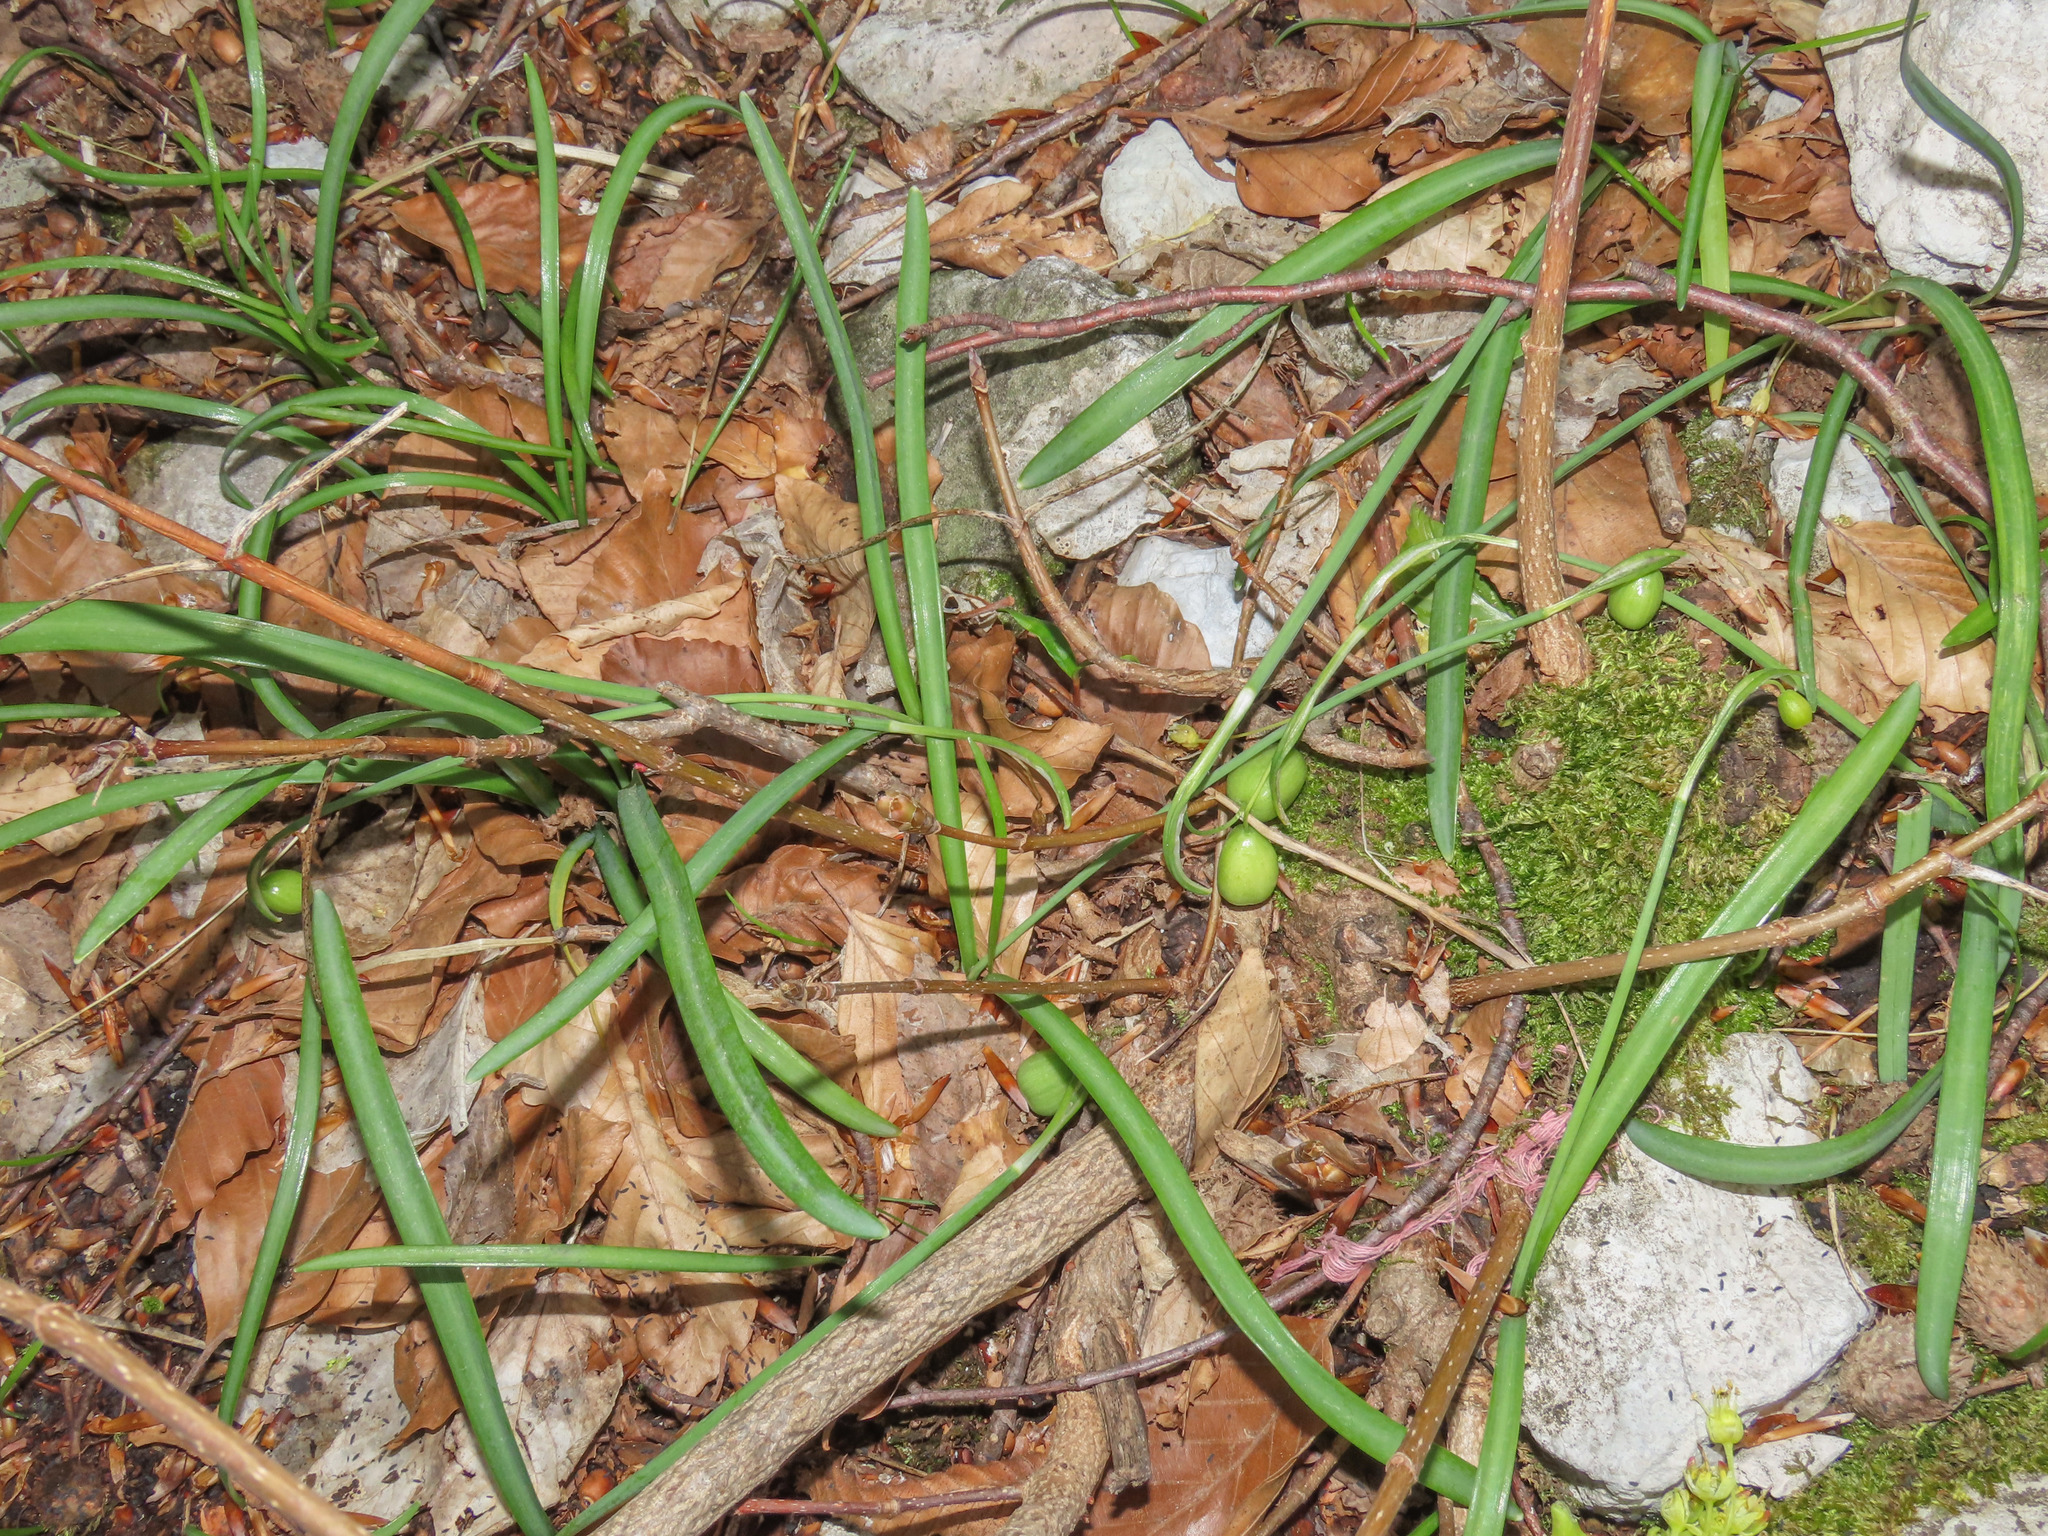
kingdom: Plantae
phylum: Tracheophyta
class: Liliopsida
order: Asparagales
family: Amaryllidaceae
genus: Galanthus
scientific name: Galanthus nivalis
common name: Snowdrop
